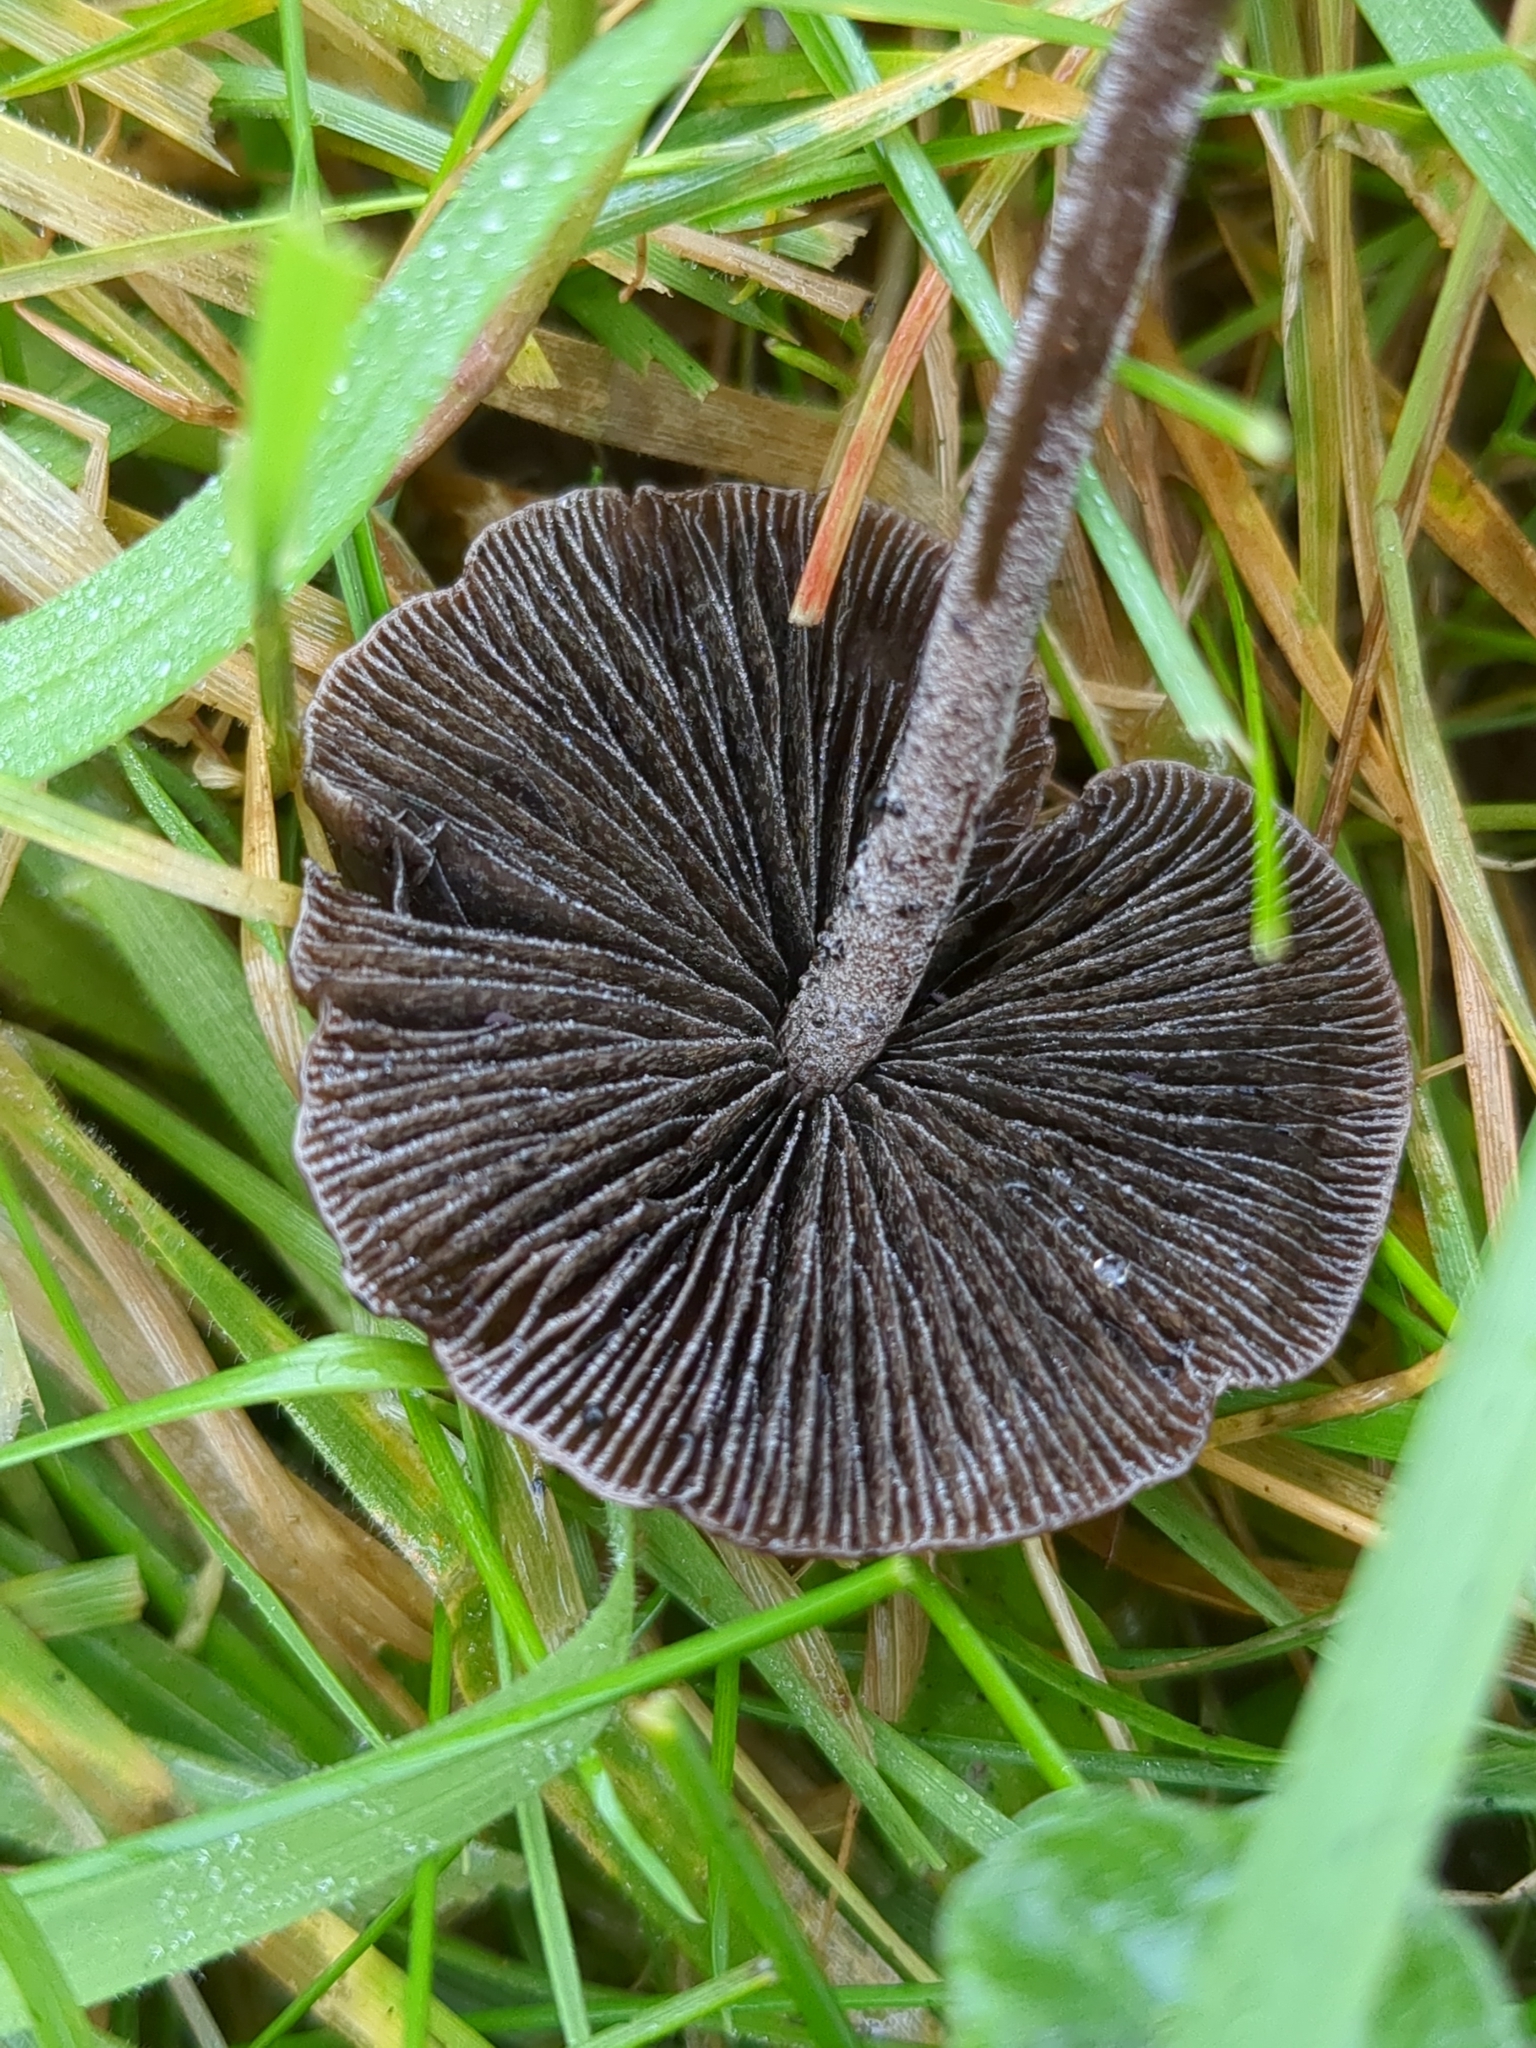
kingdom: Fungi
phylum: Basidiomycota
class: Agaricomycetes
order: Agaricales
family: Bolbitiaceae
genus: Panaeolus
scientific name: Panaeolus acuminatus
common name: Dewdrop mottlegill
